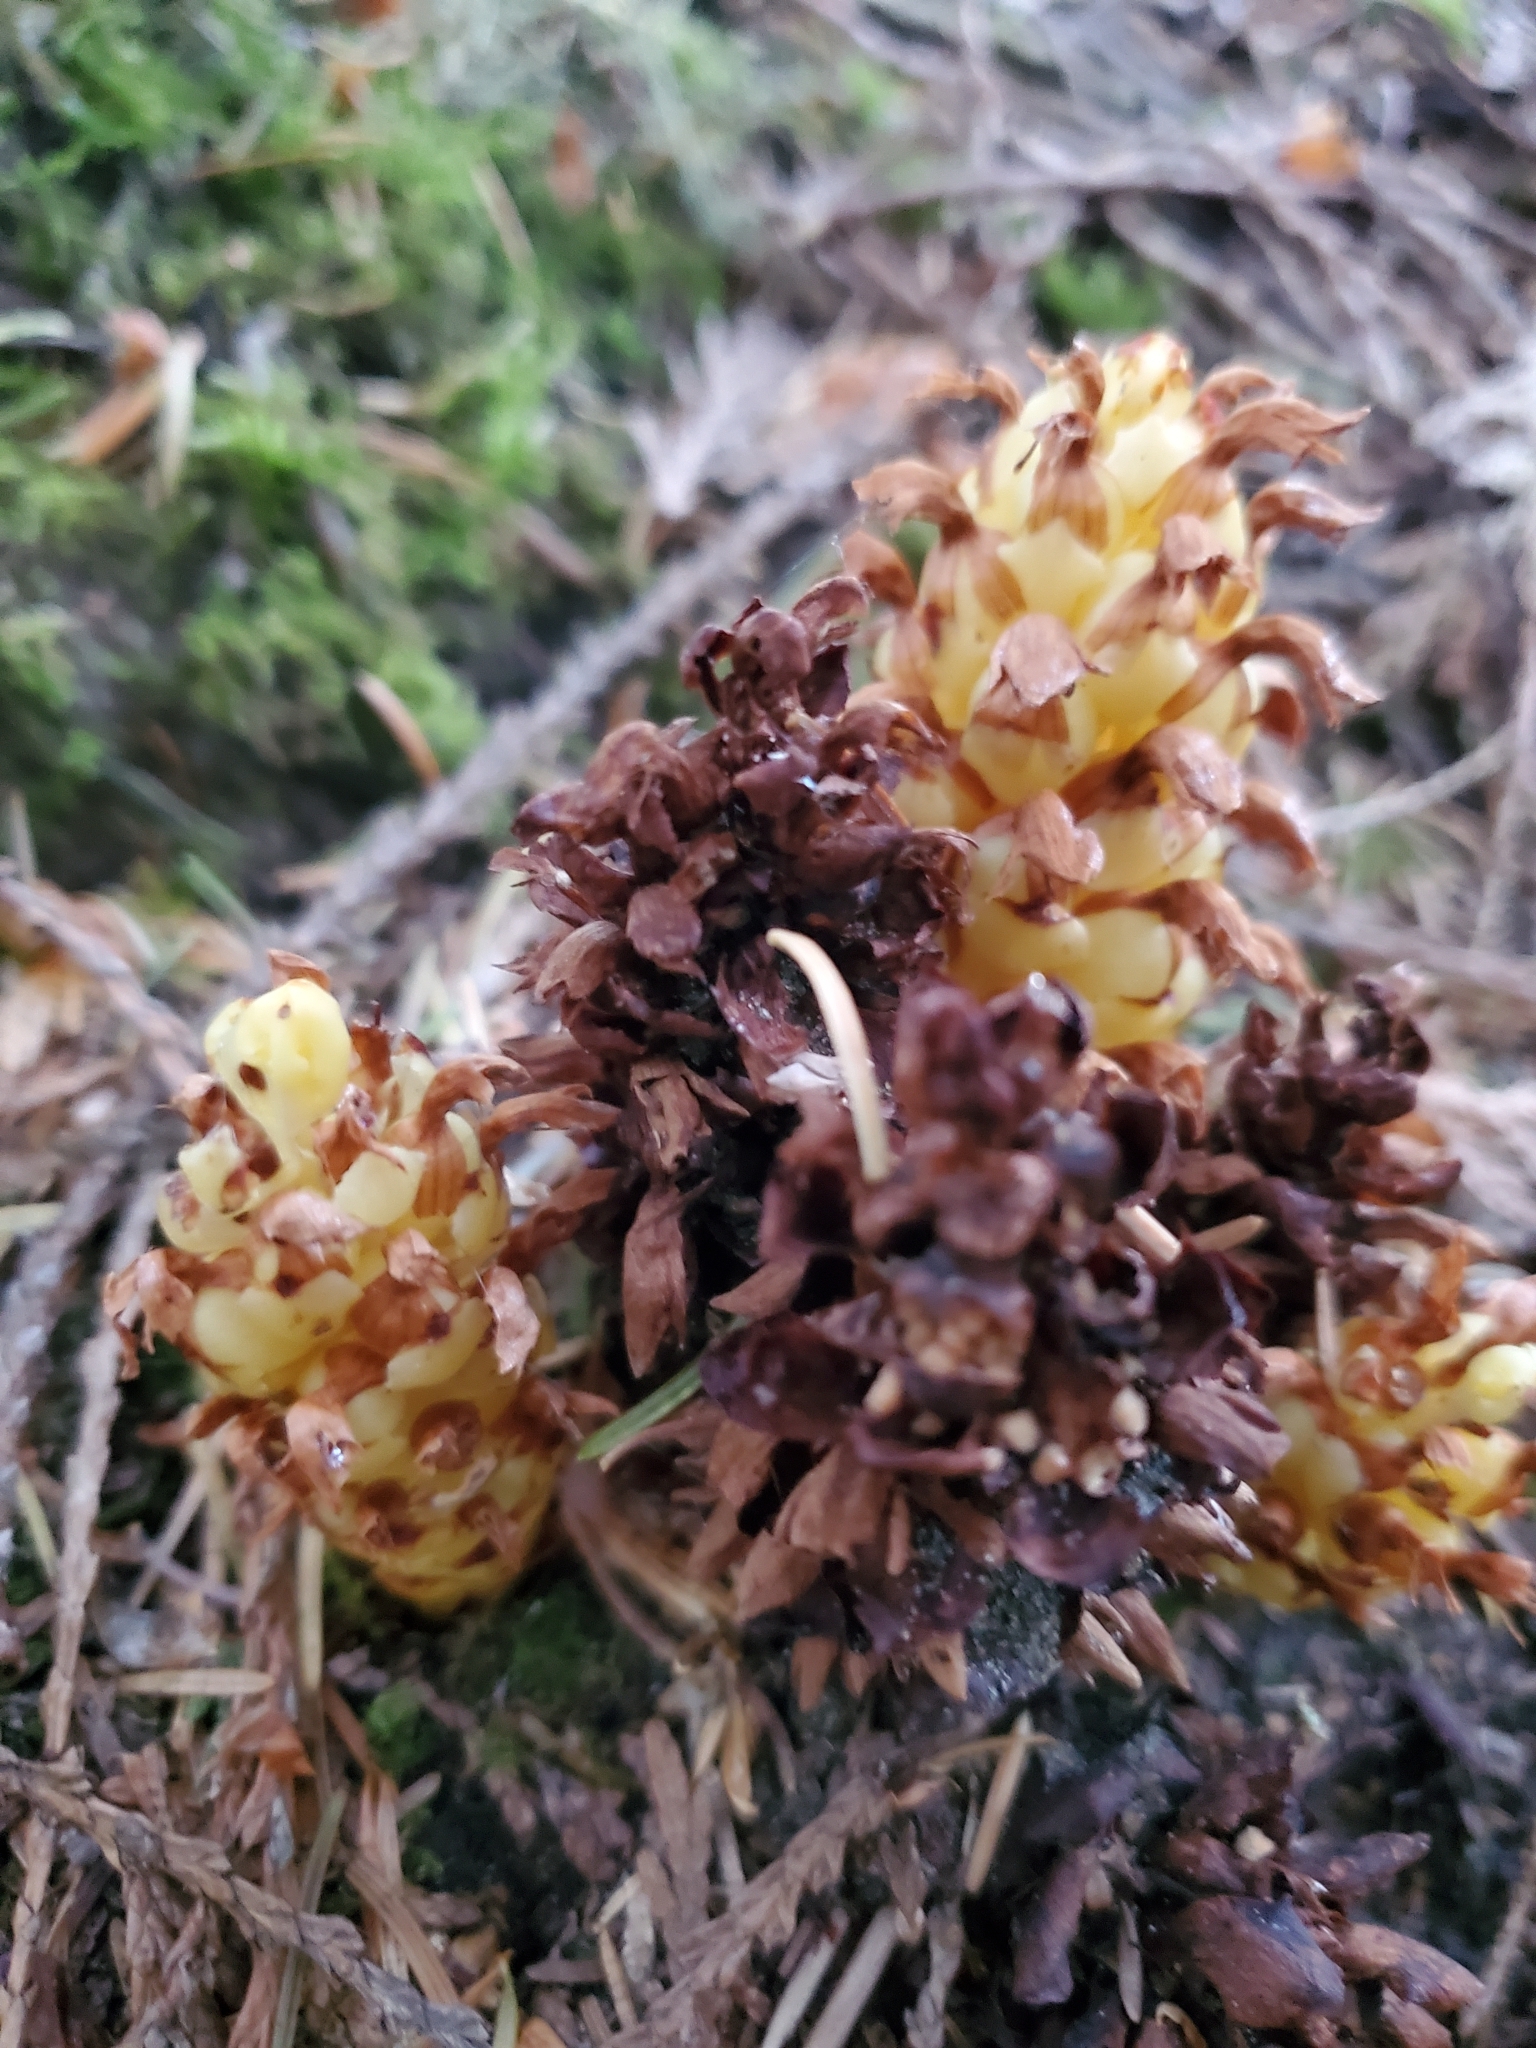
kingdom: Plantae
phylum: Tracheophyta
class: Magnoliopsida
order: Lamiales
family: Orobanchaceae
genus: Kopsiopsis
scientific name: Kopsiopsis hookeri
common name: Hooker's groundcone
